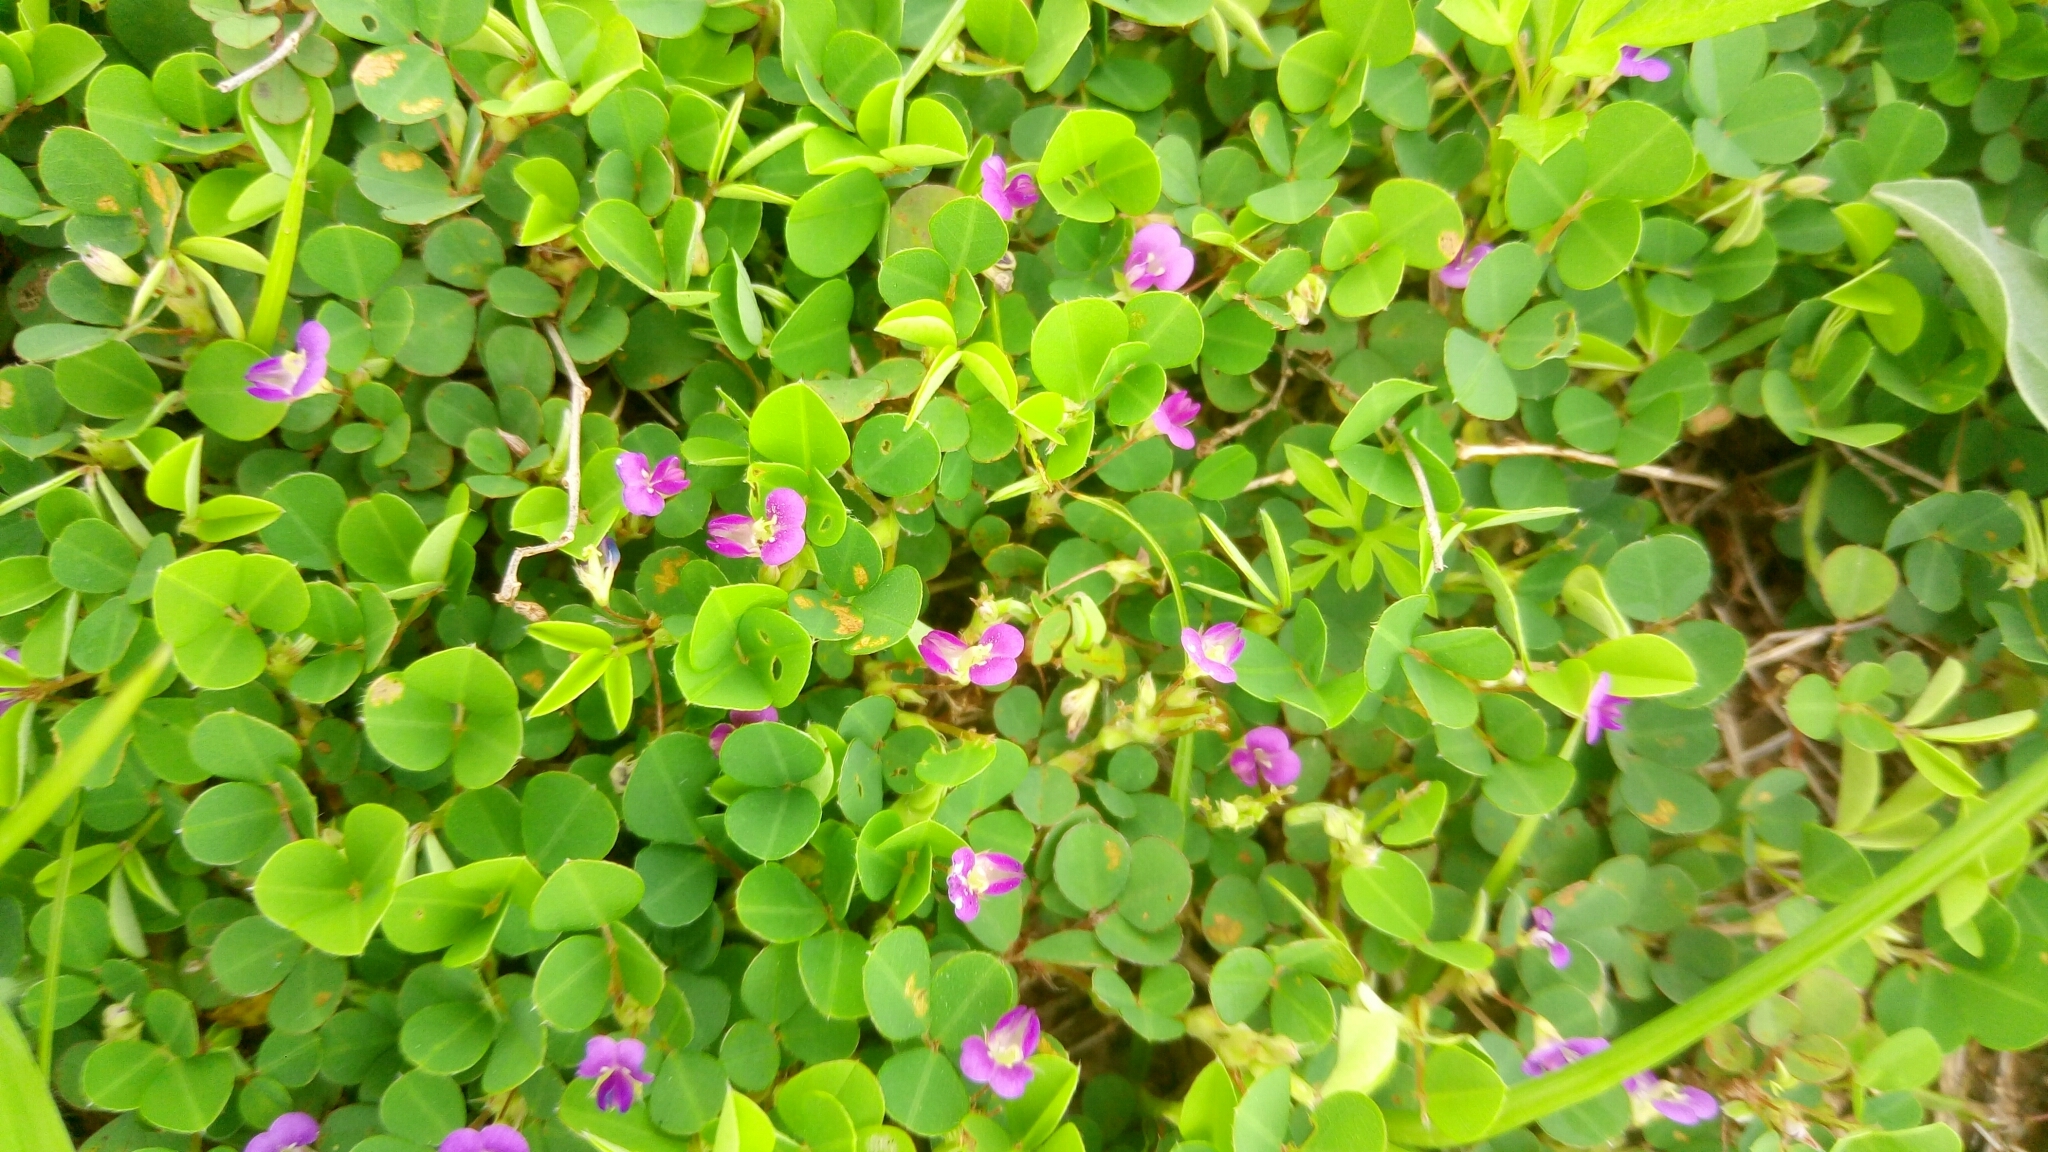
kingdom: Plantae
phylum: Tracheophyta
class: Magnoliopsida
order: Fabales
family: Fabaceae
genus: Grona
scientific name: Grona triflora
